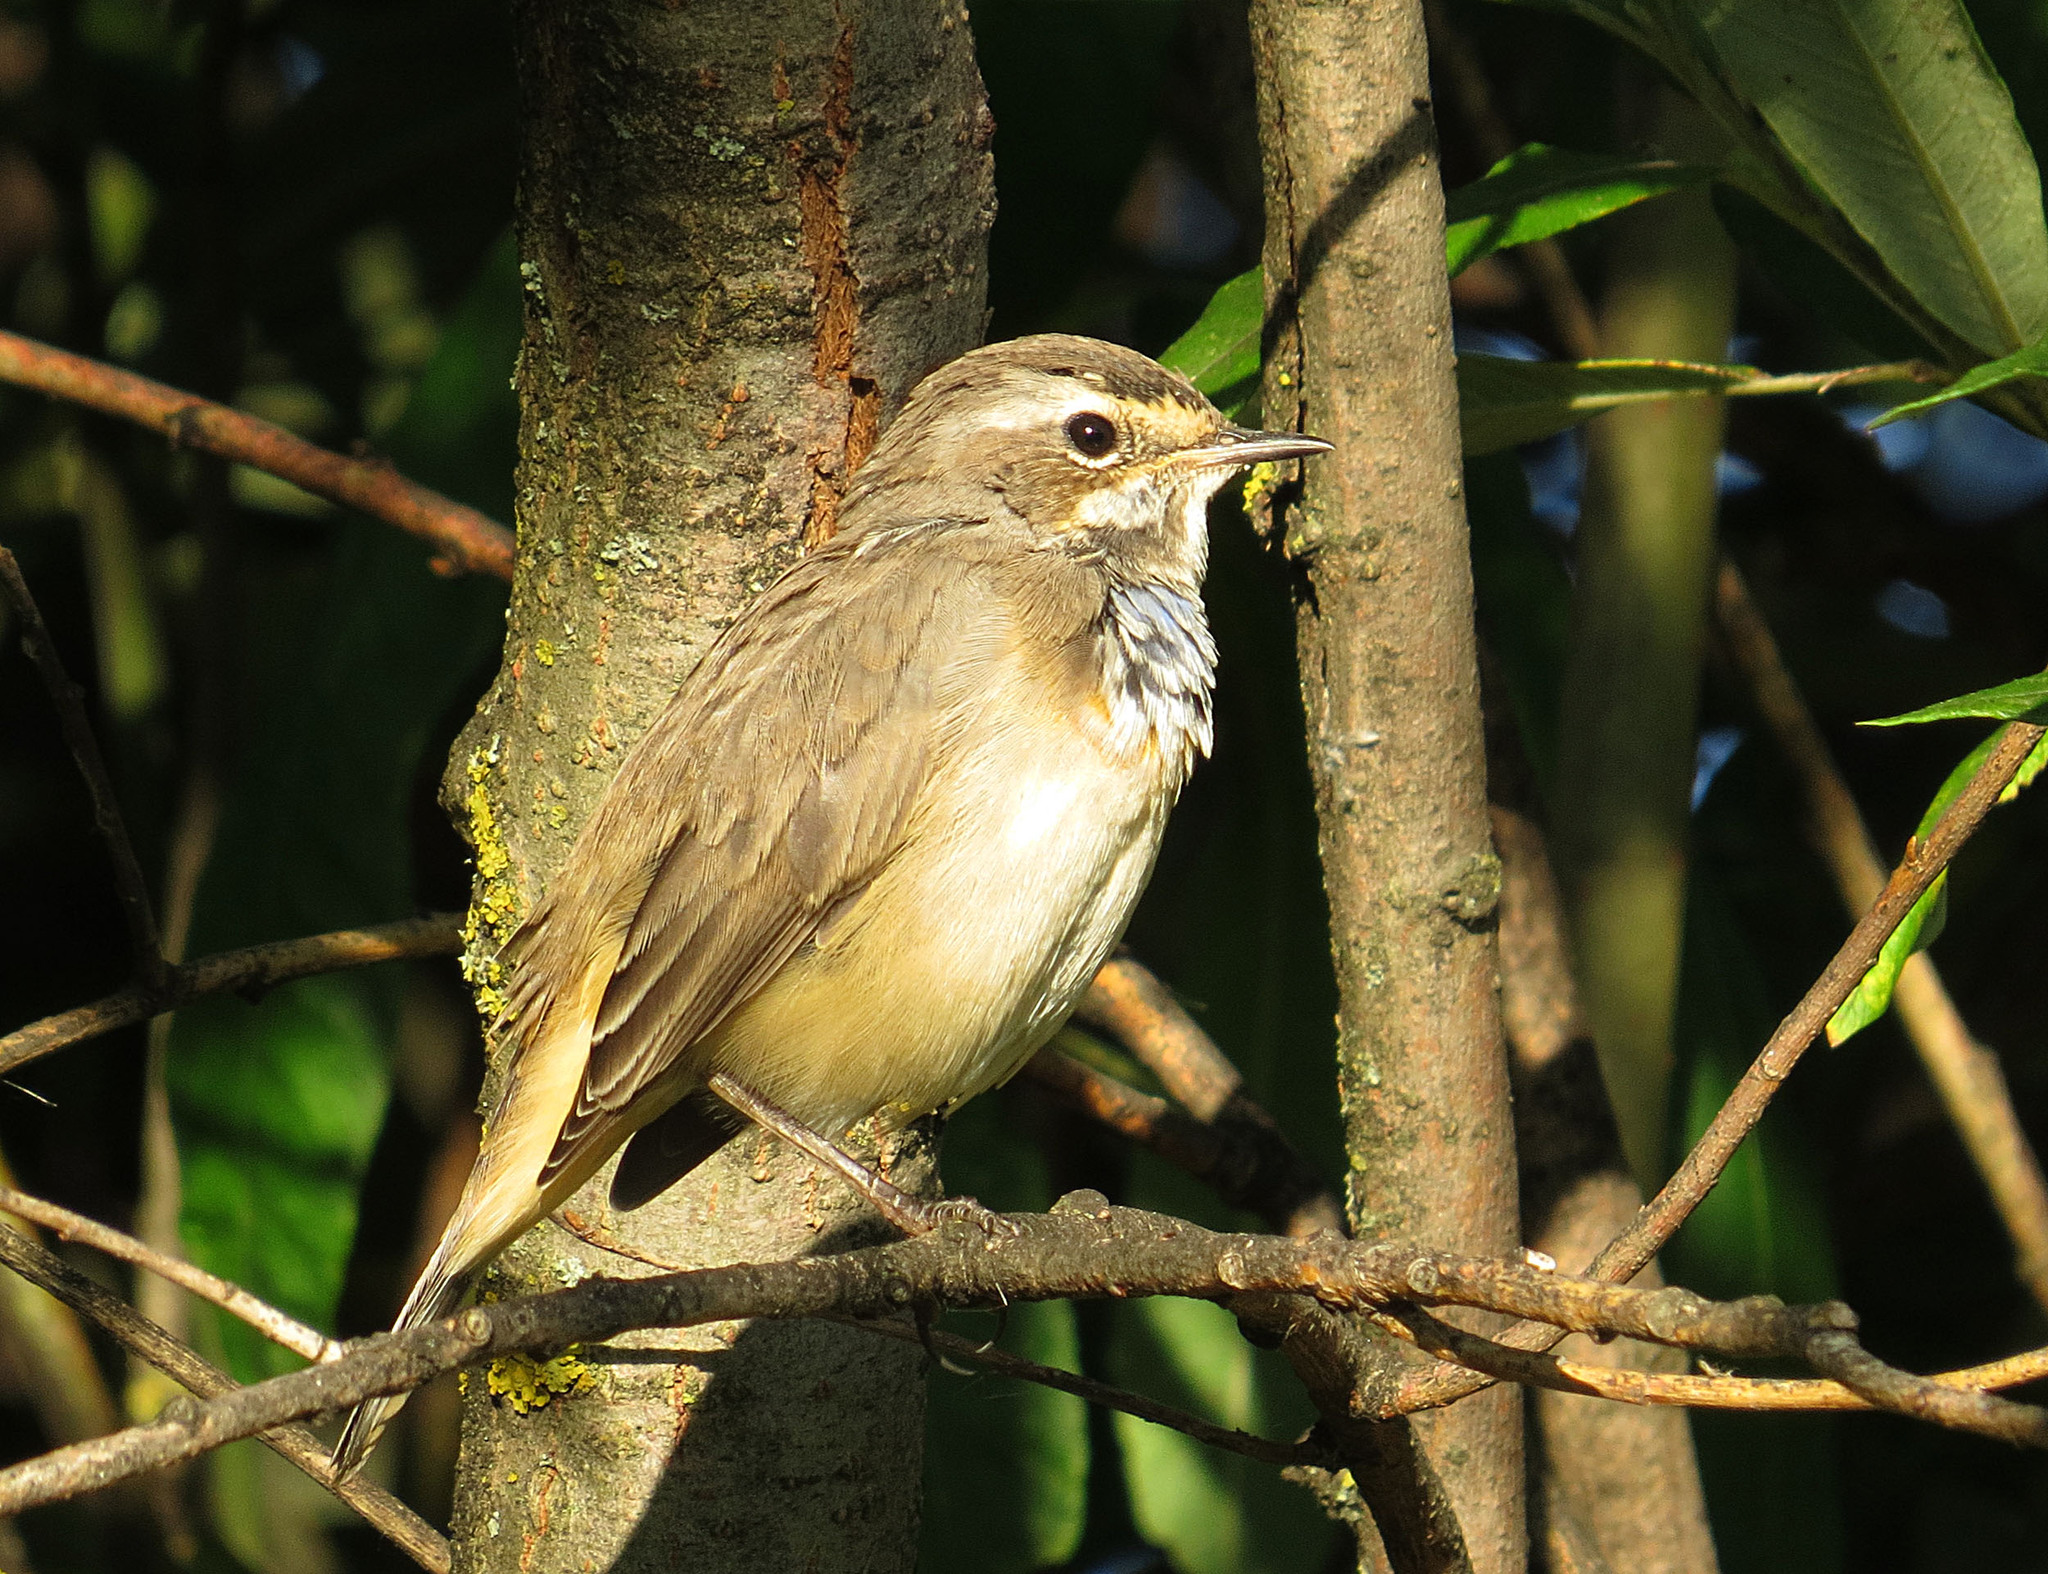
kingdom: Animalia
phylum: Chordata
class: Aves
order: Passeriformes
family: Muscicapidae
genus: Luscinia
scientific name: Luscinia svecica
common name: Bluethroat
